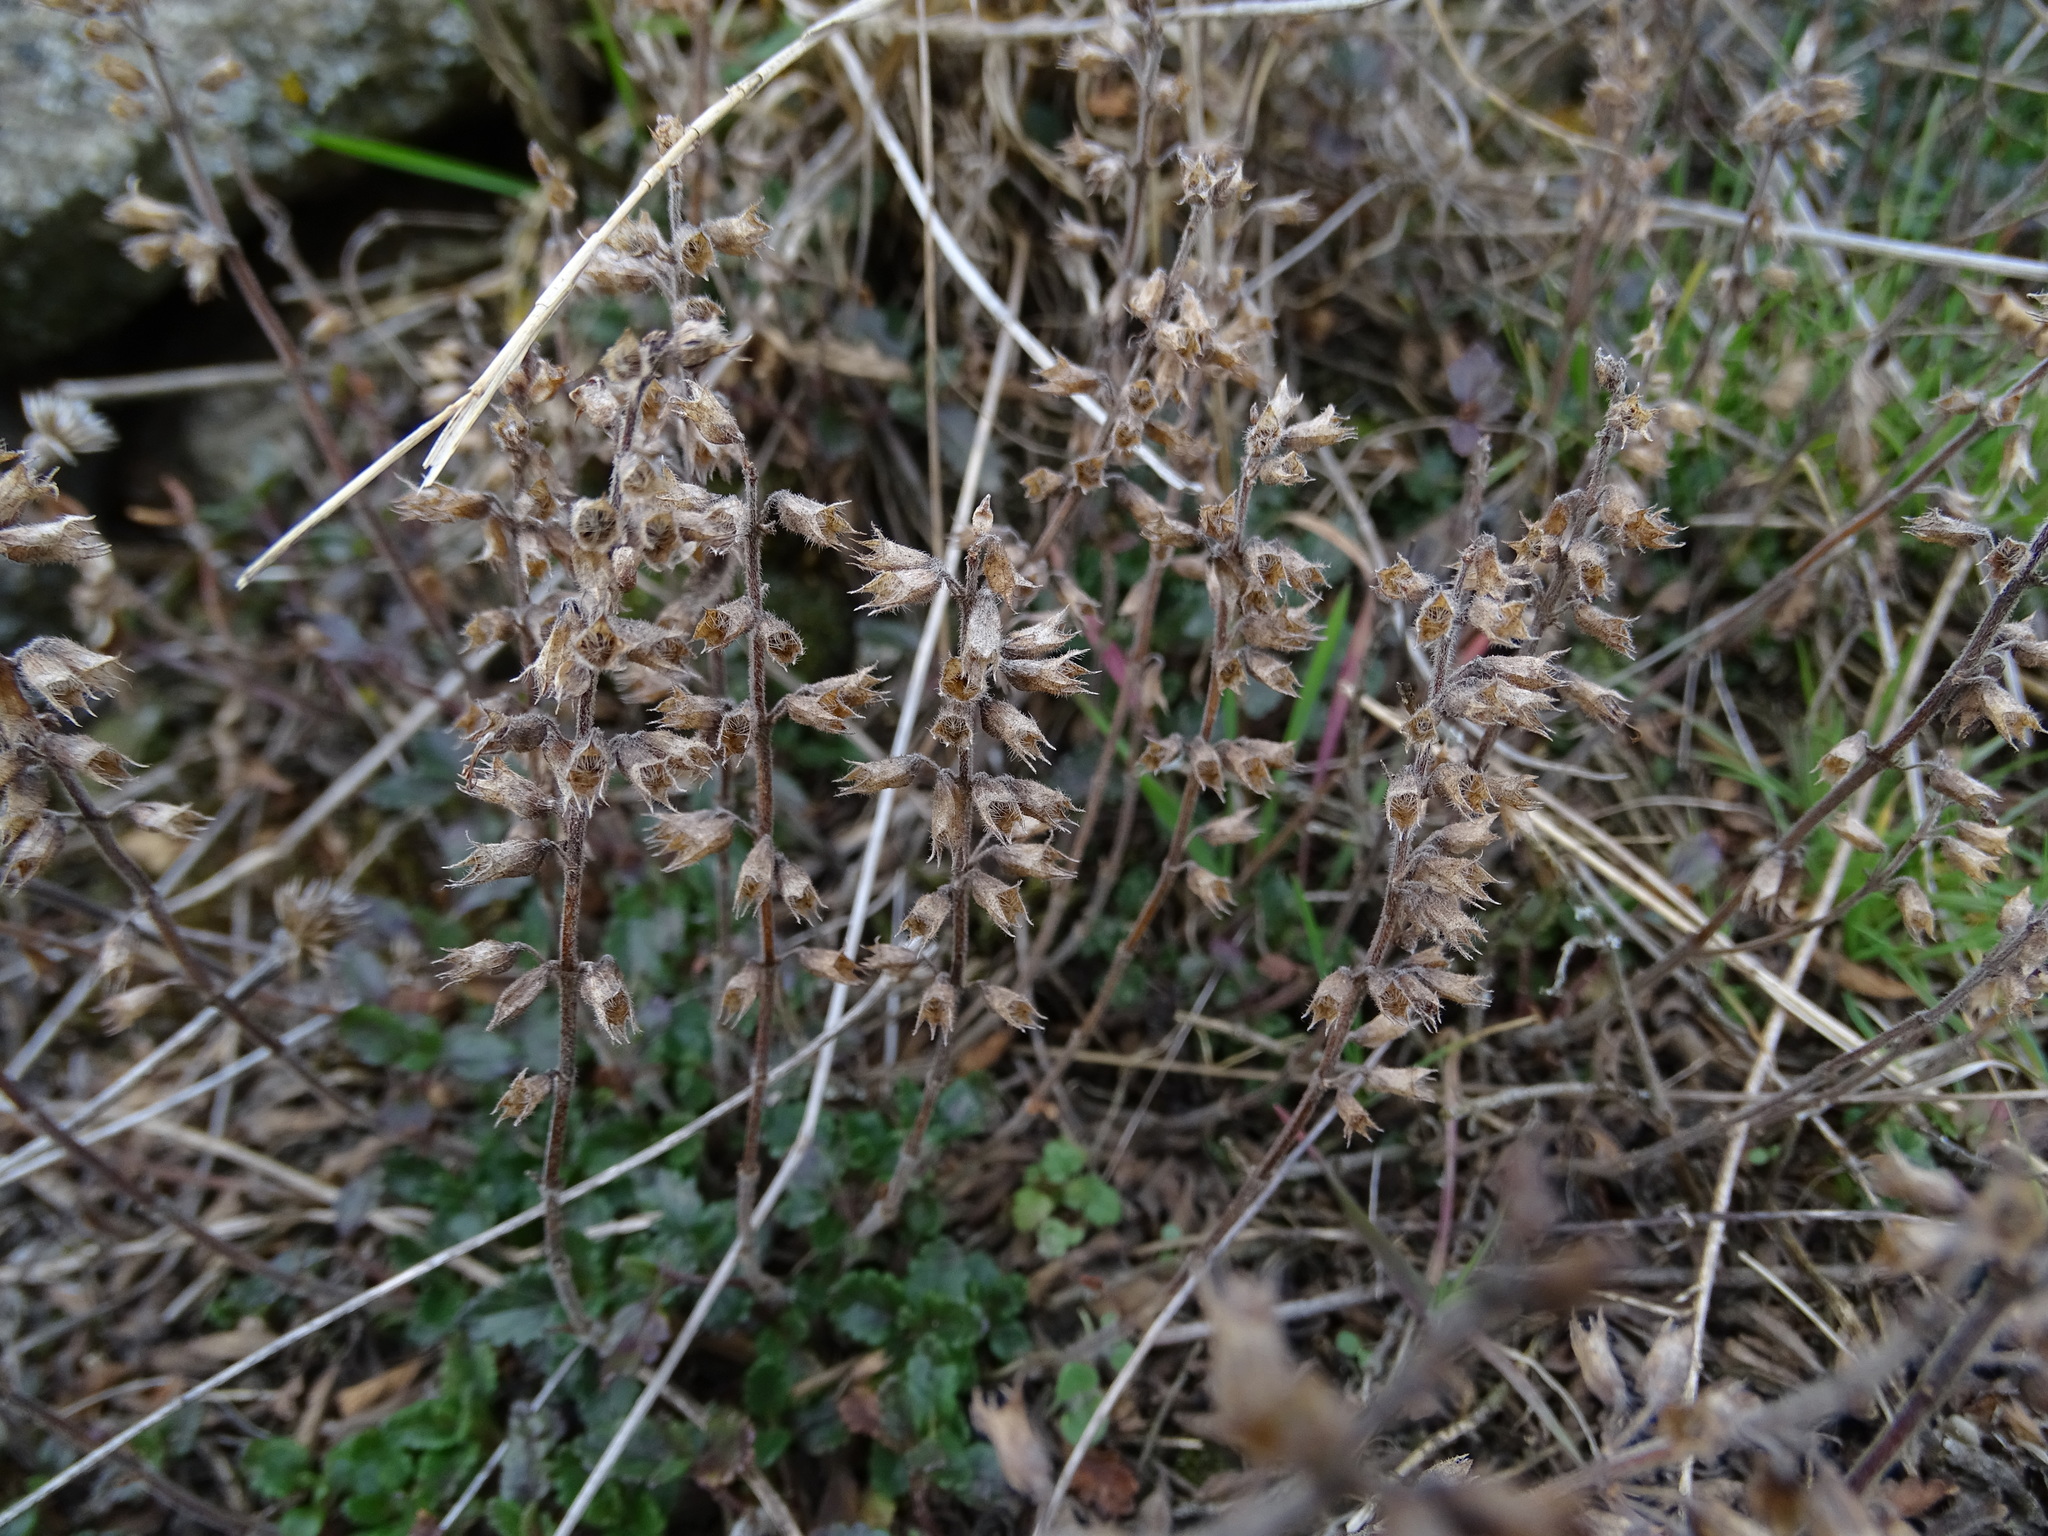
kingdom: Plantae
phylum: Tracheophyta
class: Magnoliopsida
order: Lamiales
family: Lamiaceae
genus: Teucrium
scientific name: Teucrium chamaedrys
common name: Wall germander
